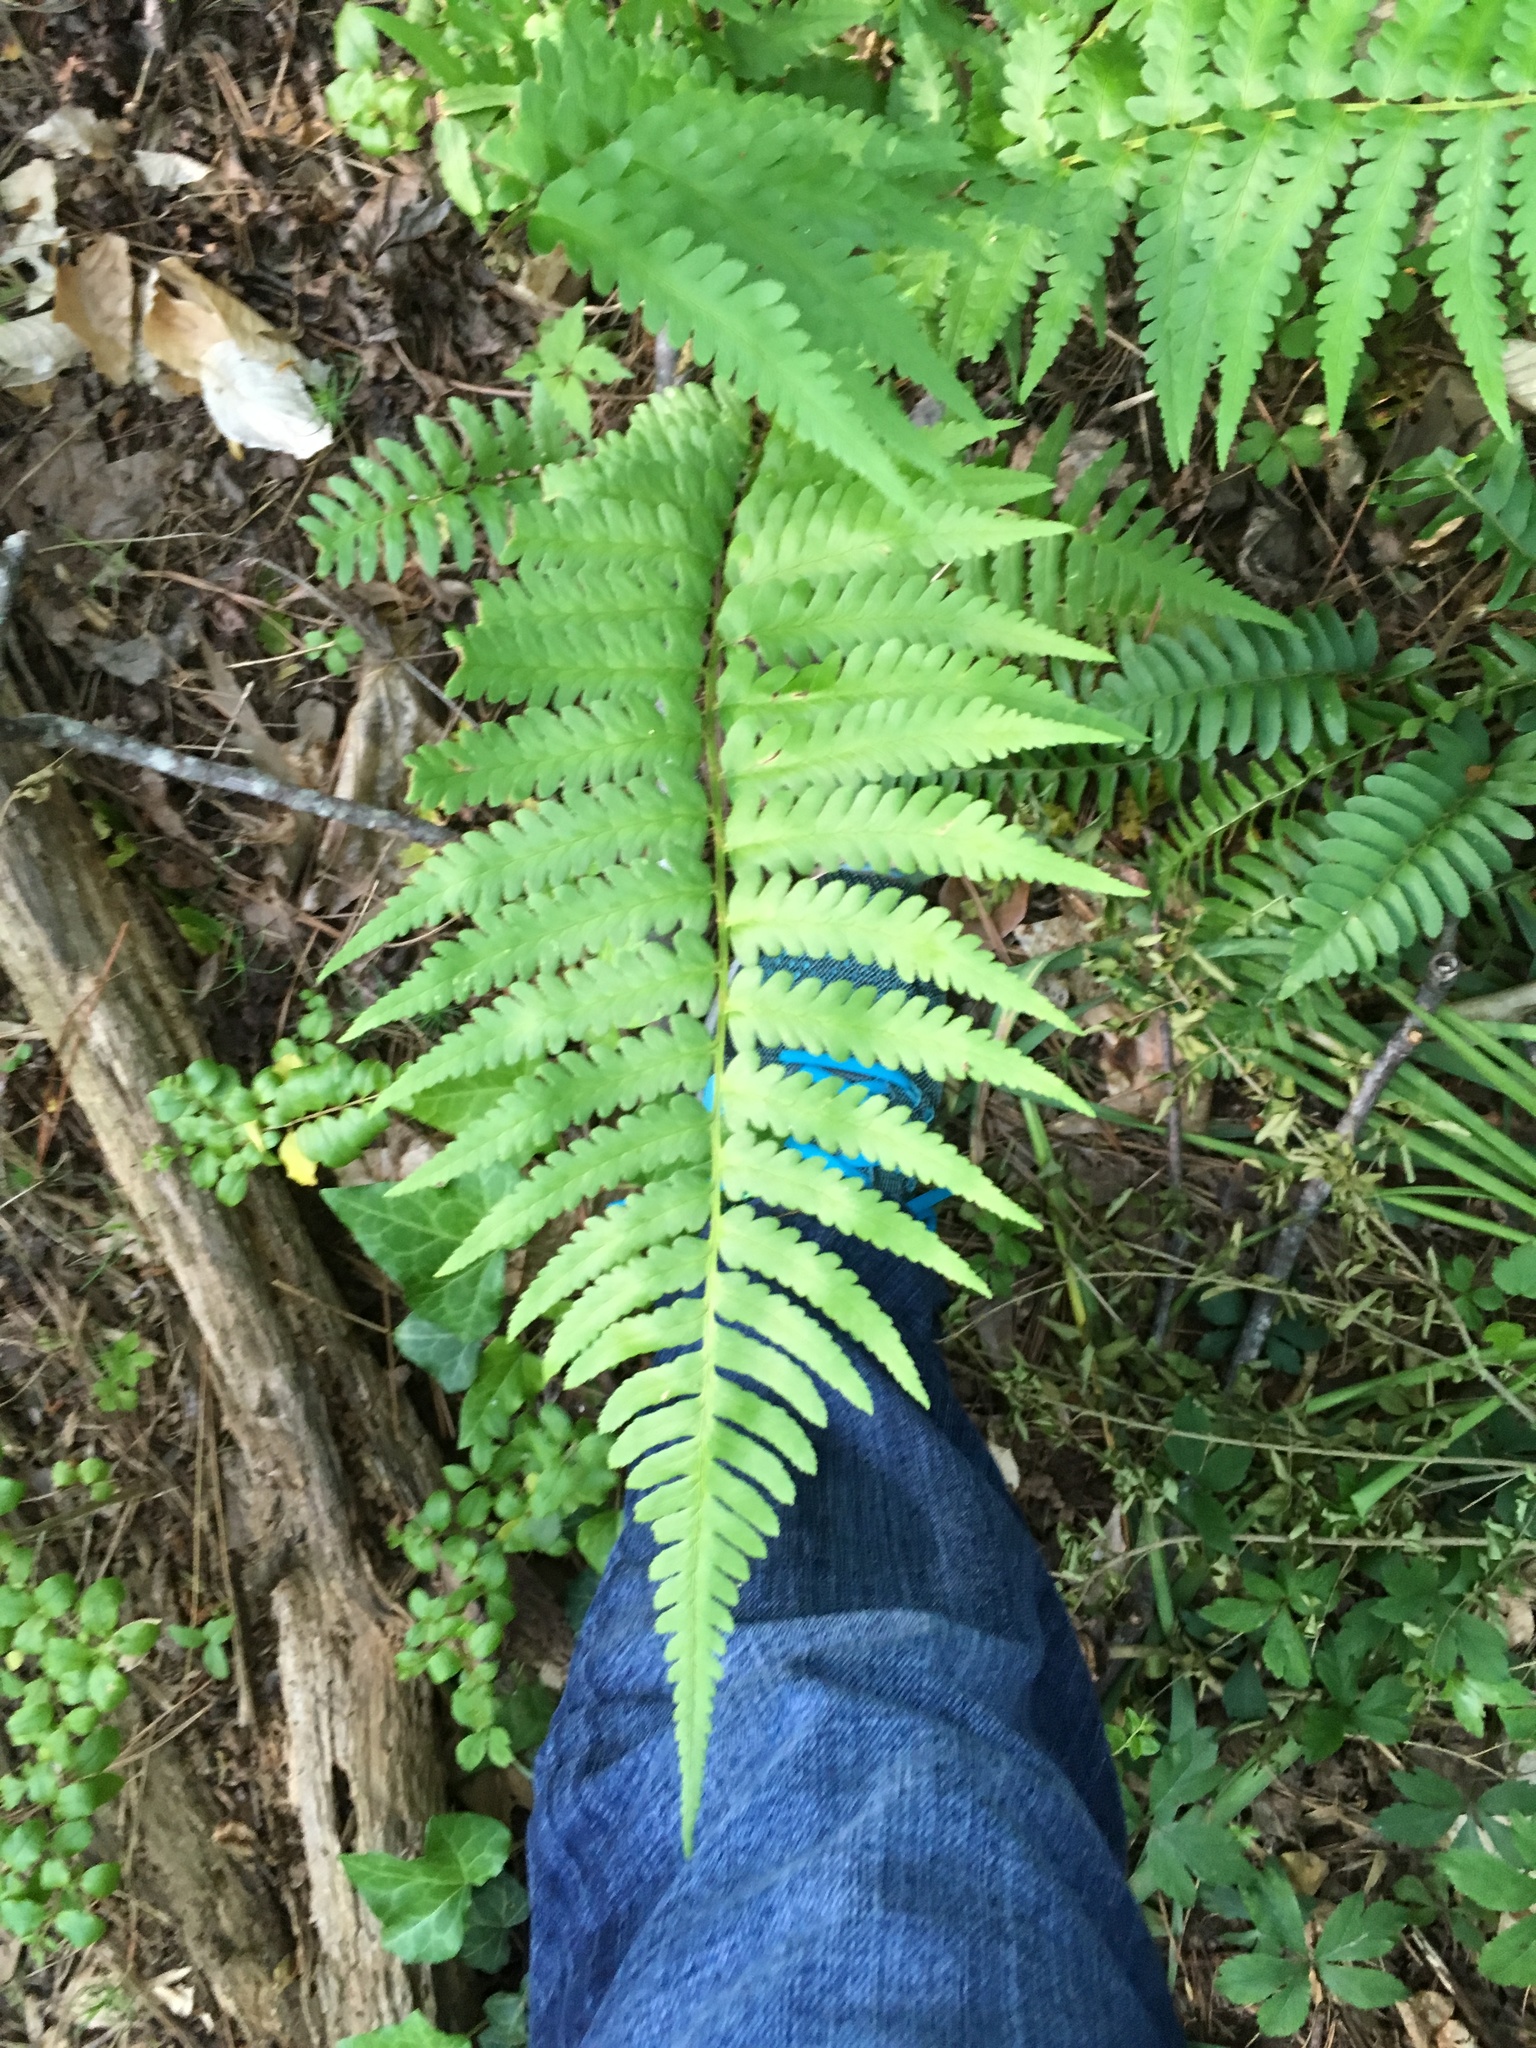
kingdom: Plantae
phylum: Tracheophyta
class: Polypodiopsida
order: Osmundales
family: Osmundaceae
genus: Osmundastrum
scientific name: Osmundastrum cinnamomeum
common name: Cinnamon fern
